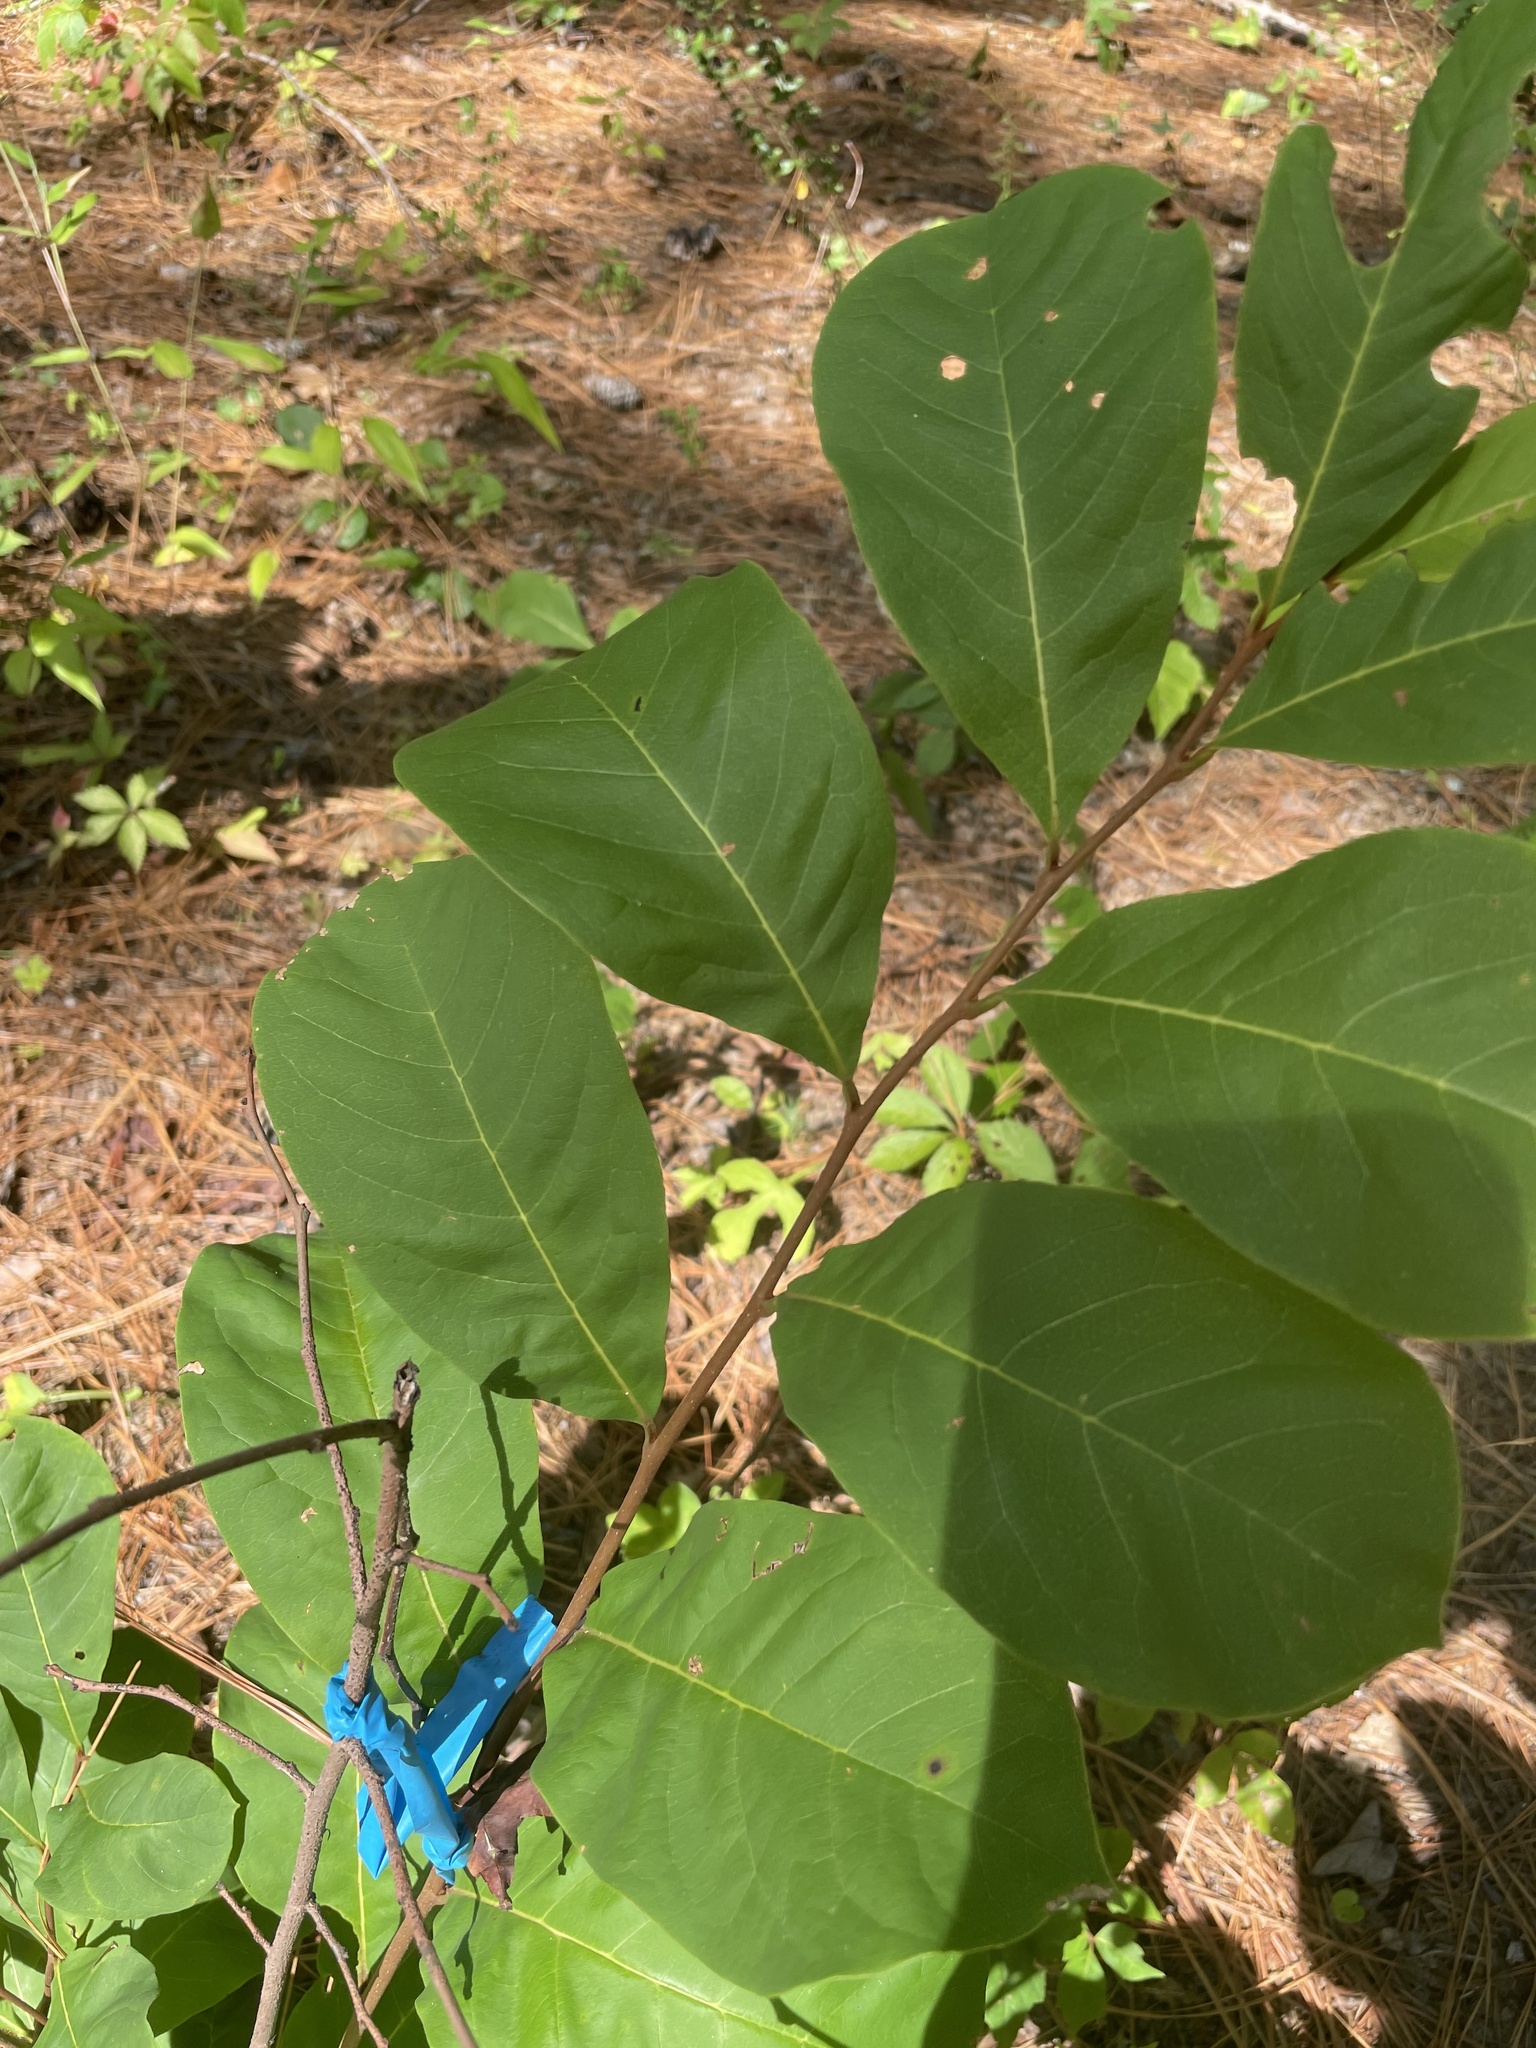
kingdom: Plantae
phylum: Tracheophyta
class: Magnoliopsida
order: Magnoliales
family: Annonaceae
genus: Asimina
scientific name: Asimina parviflora
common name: Dwarf pawpaw
